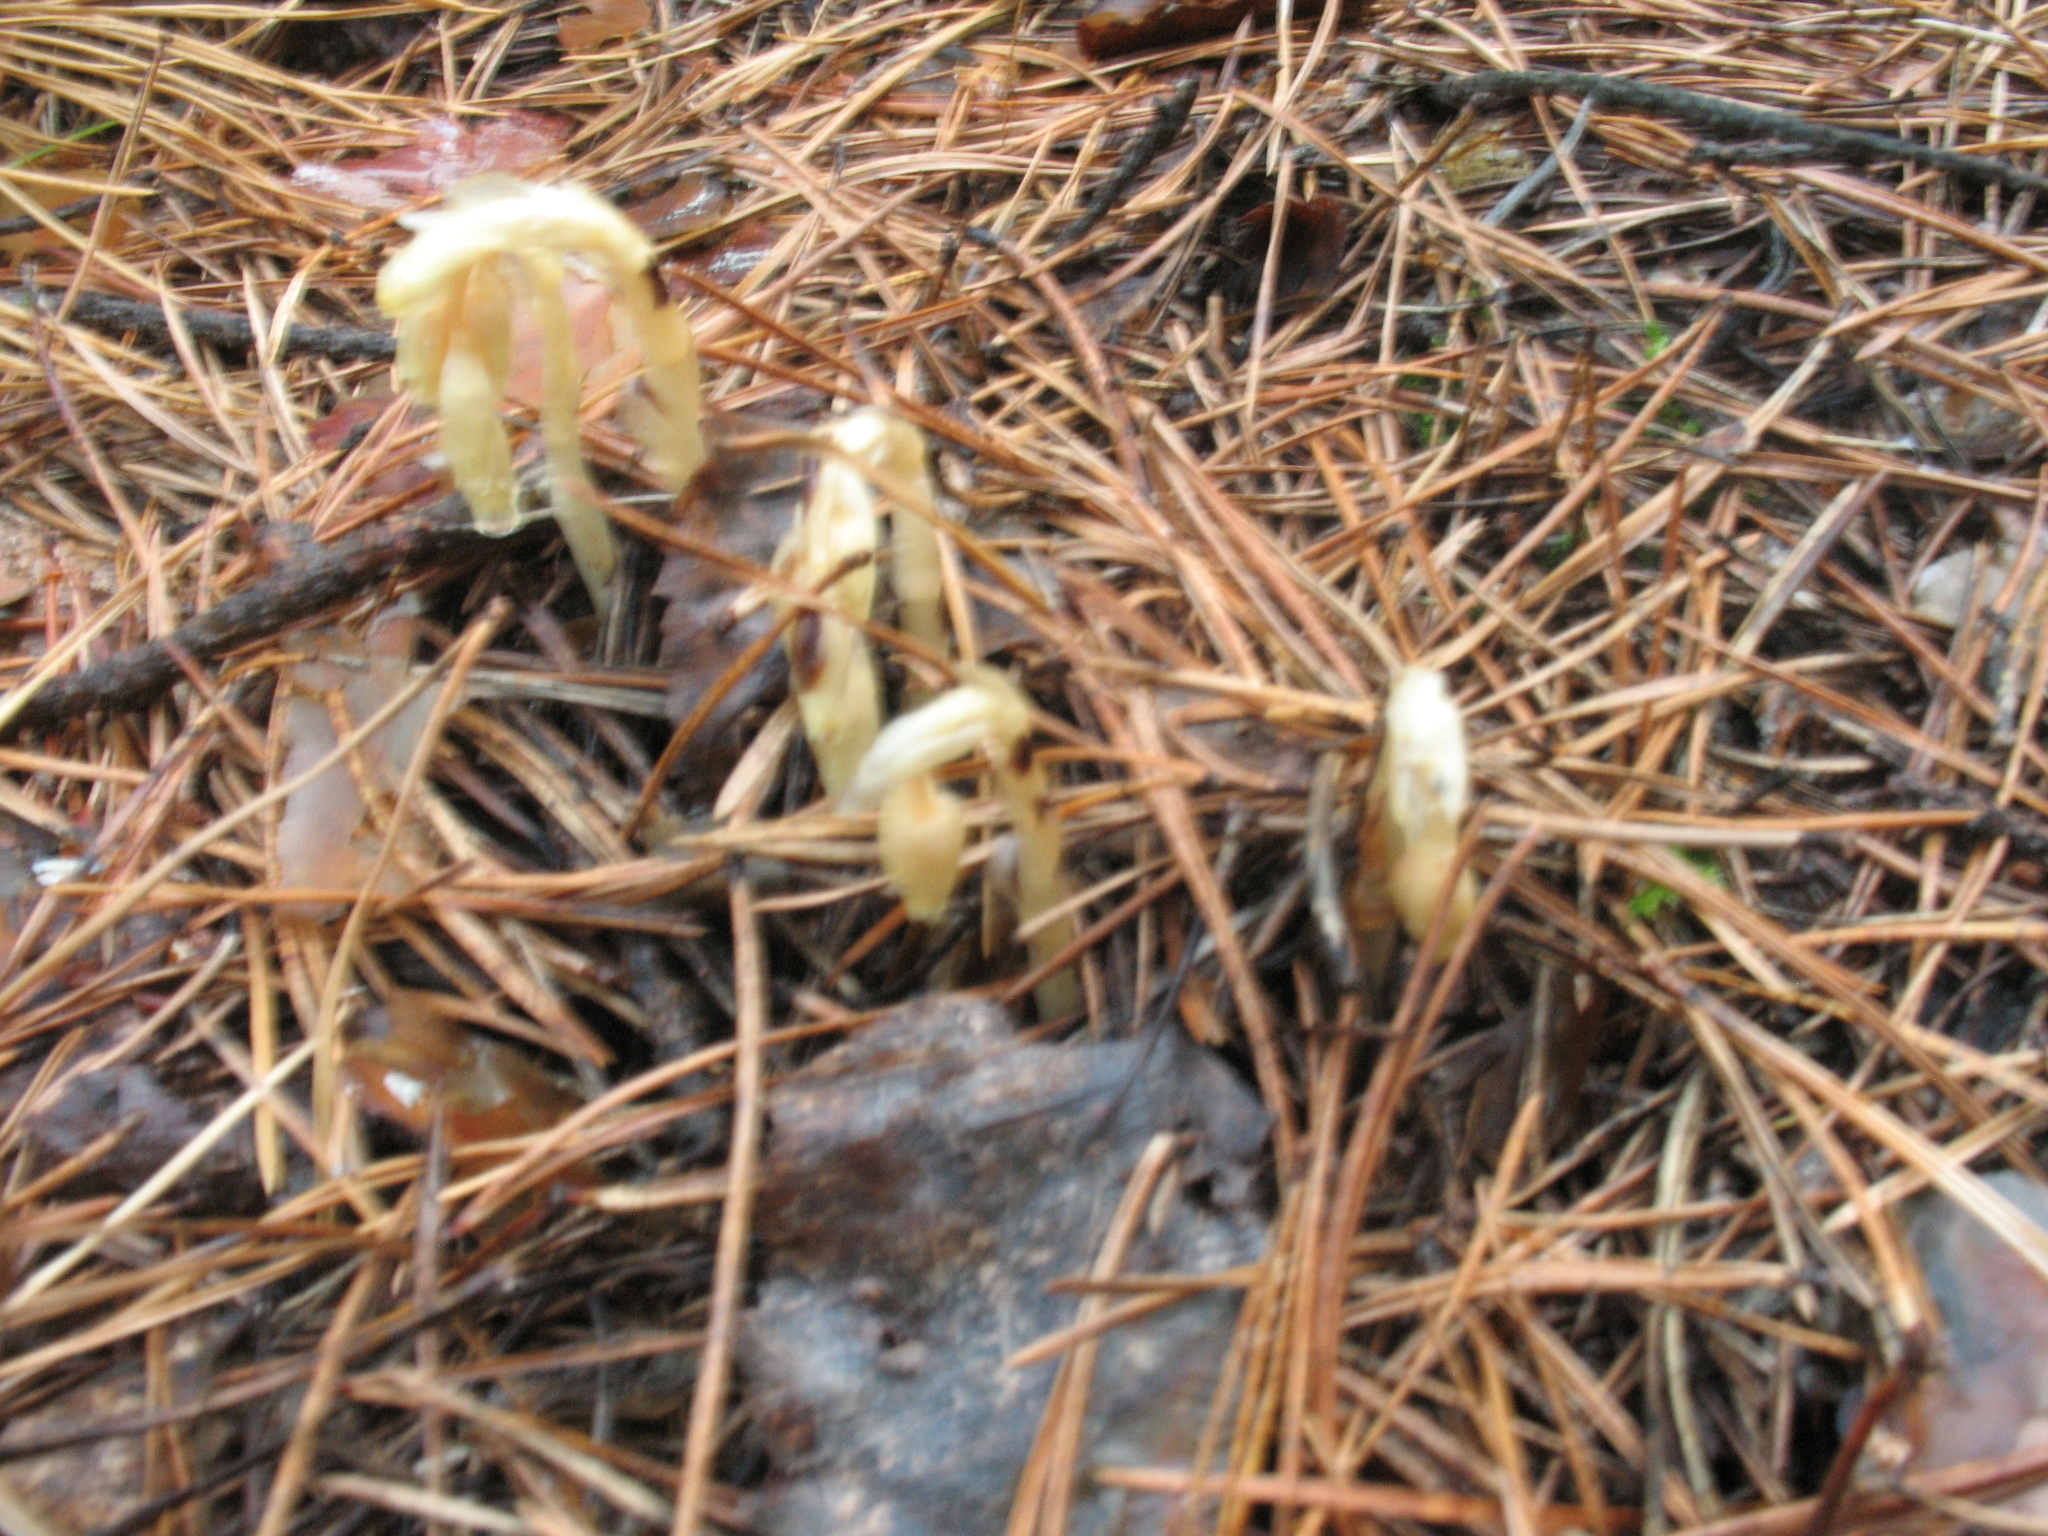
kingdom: Plantae
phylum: Tracheophyta
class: Magnoliopsida
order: Ericales
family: Ericaceae
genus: Hypopitys
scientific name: Hypopitys monotropa
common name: Yellow bird's-nest
